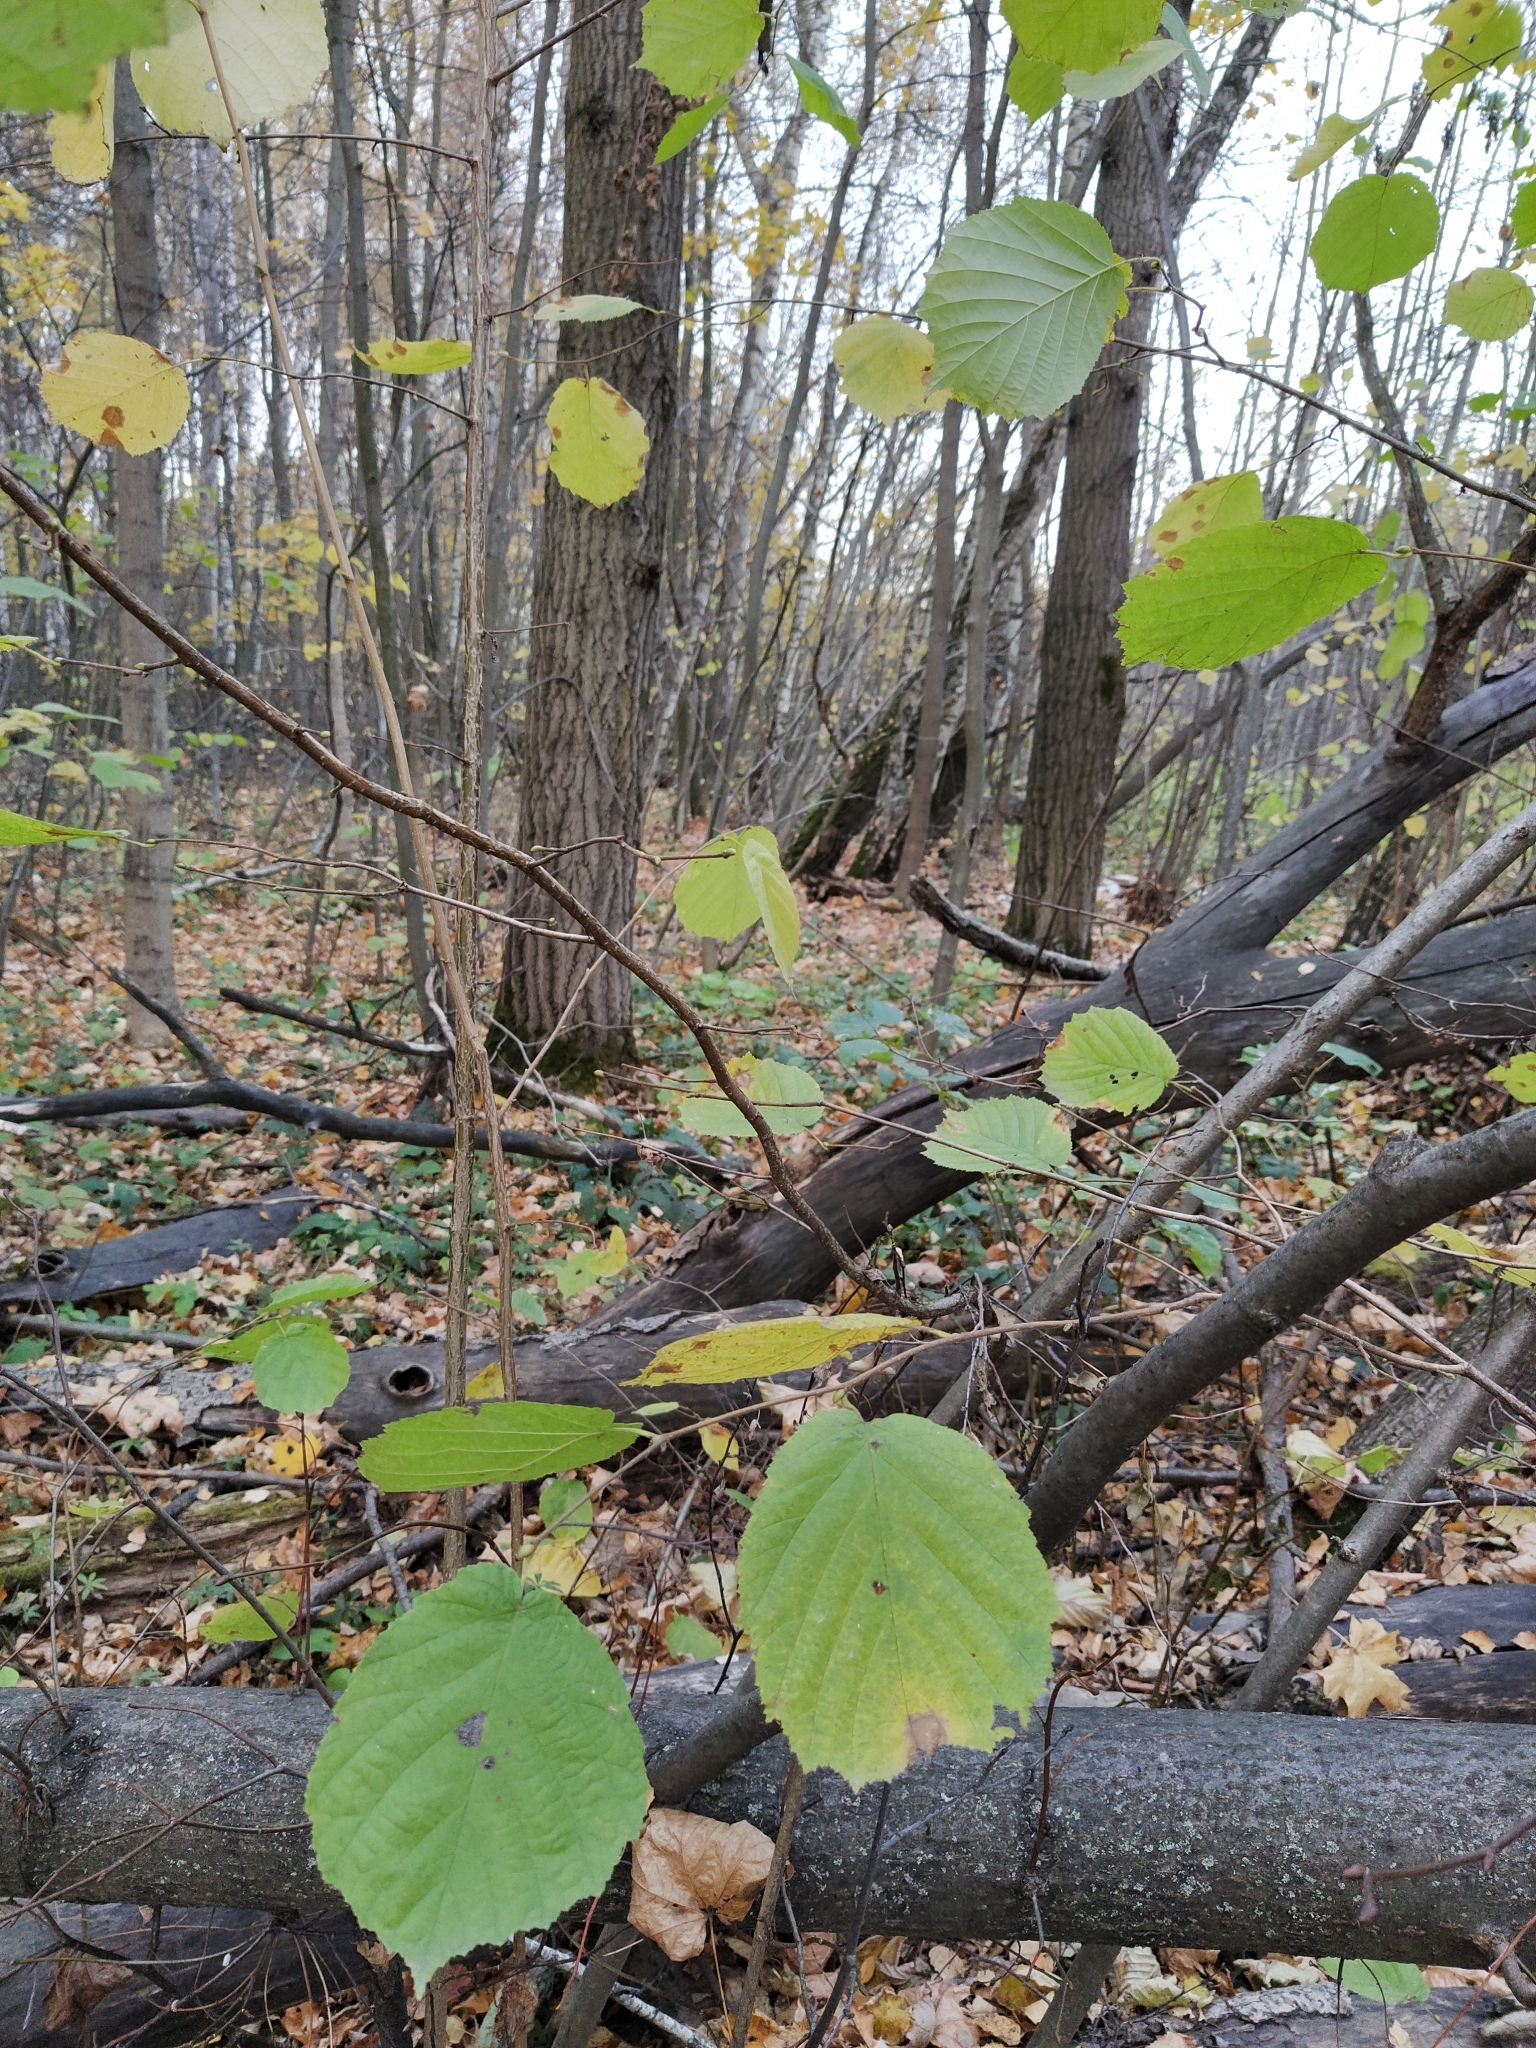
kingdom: Plantae
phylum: Tracheophyta
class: Magnoliopsida
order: Fagales
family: Betulaceae
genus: Corylus
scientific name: Corylus avellana
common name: European hazel
